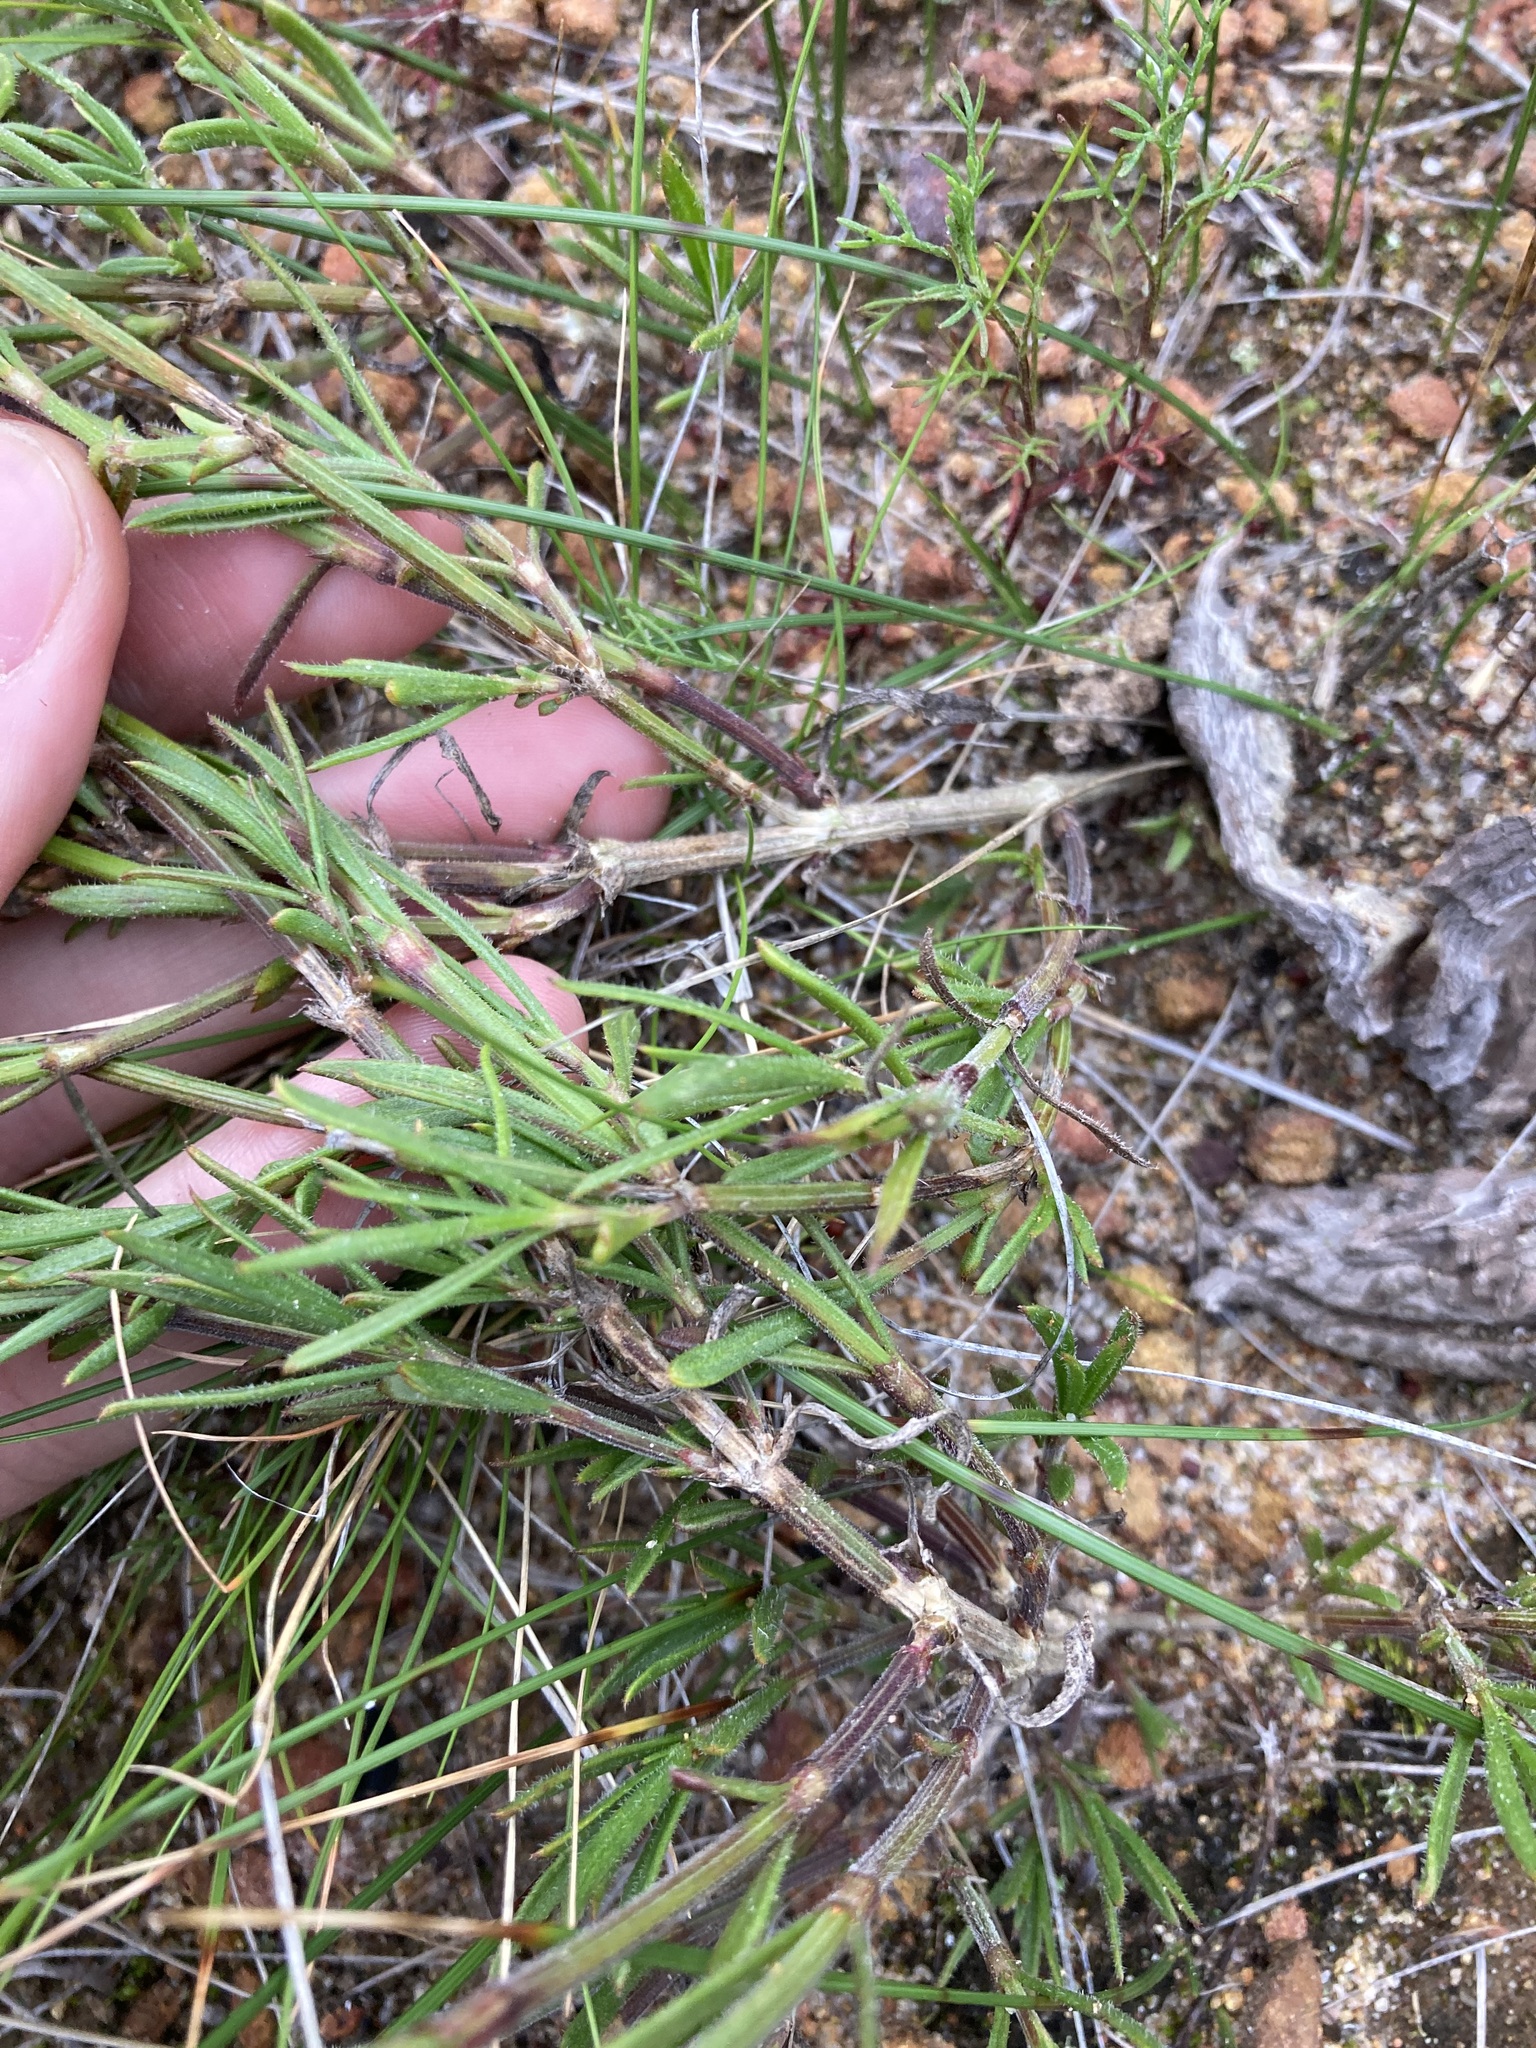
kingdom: Plantae
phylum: Tracheophyta
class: Magnoliopsida
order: Gentianales
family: Rubiaceae
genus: Opercularia
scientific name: Opercularia vaginata
